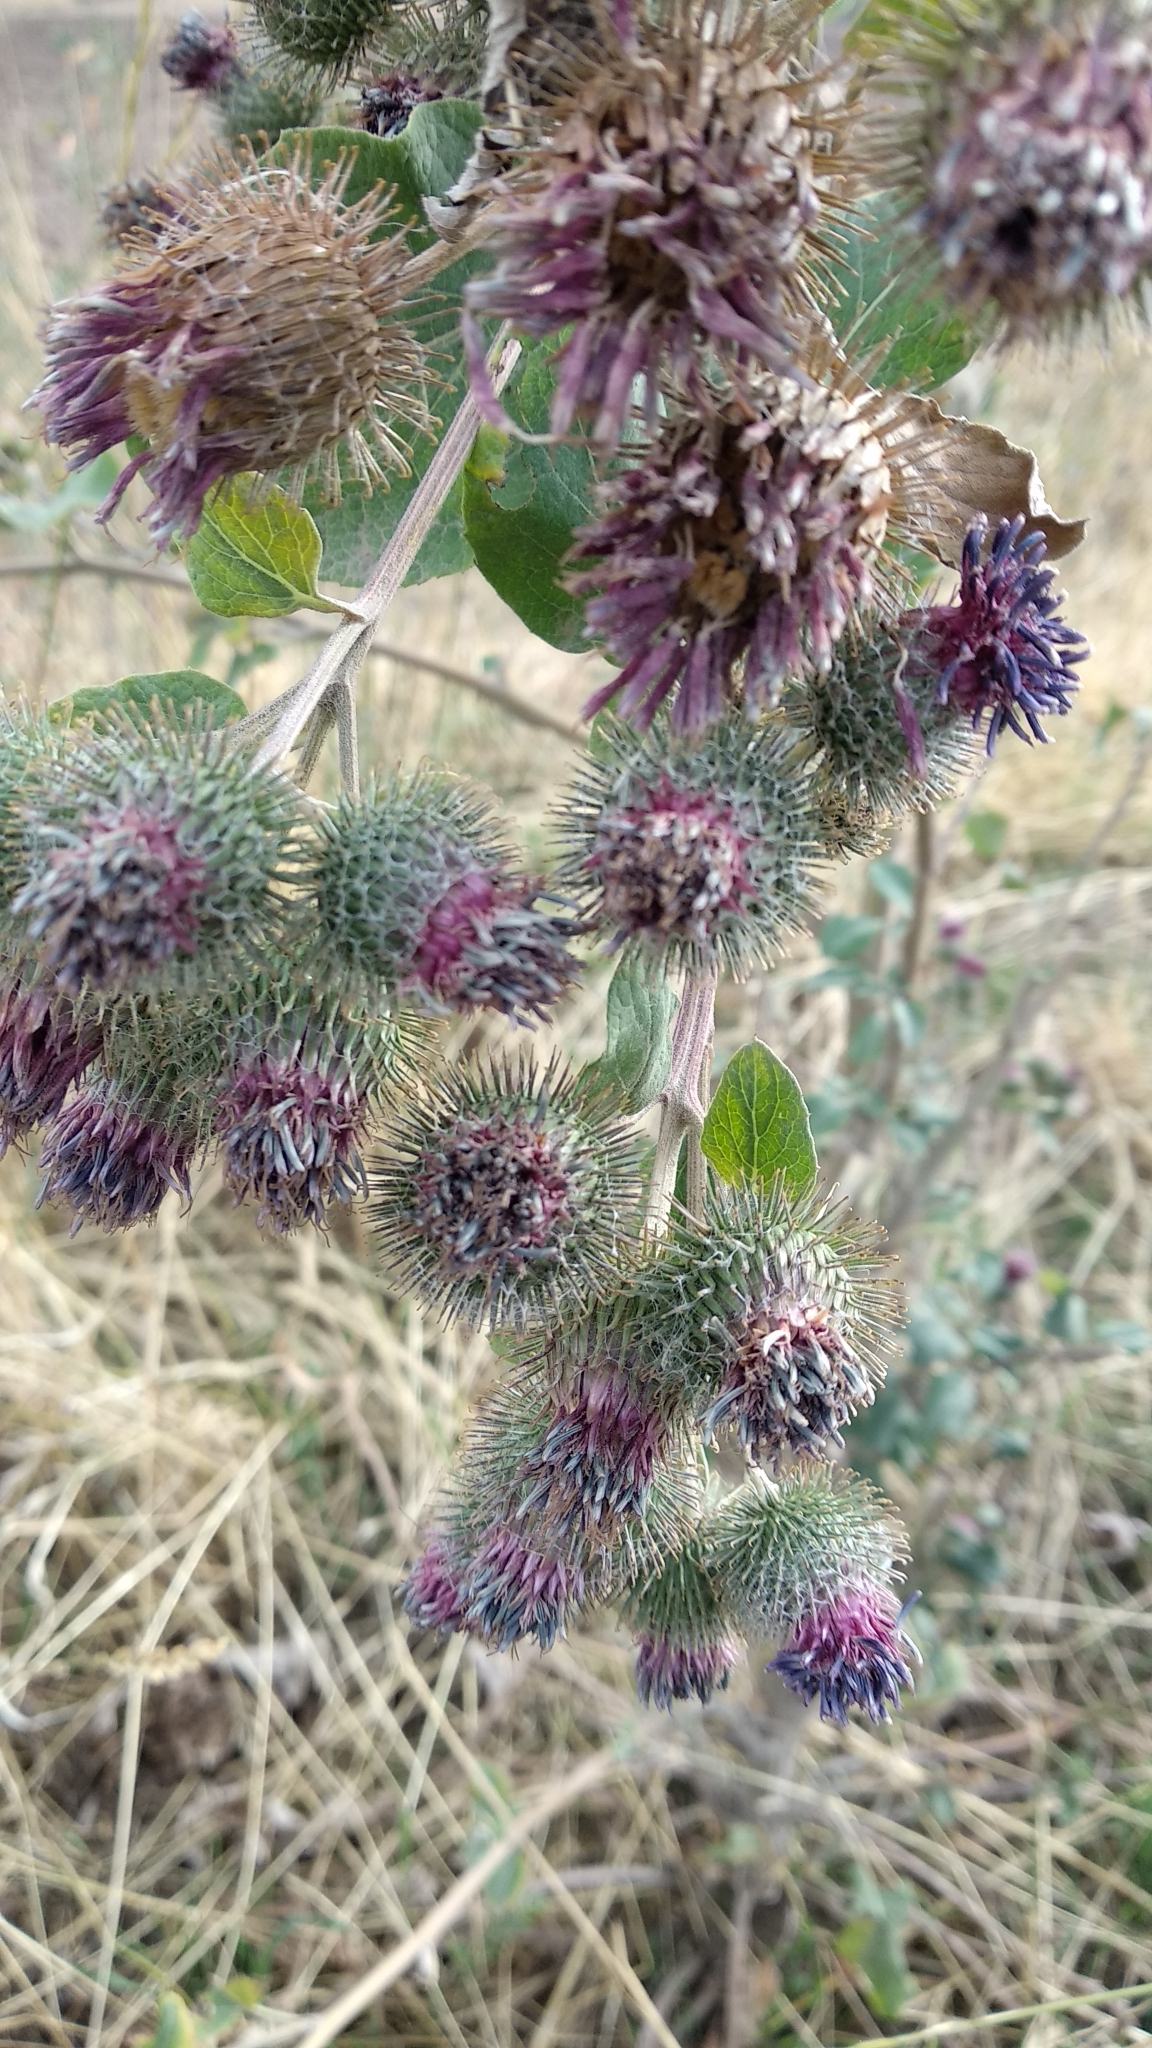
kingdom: Plantae
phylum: Tracheophyta
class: Magnoliopsida
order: Asterales
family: Asteraceae
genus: Arctium
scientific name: Arctium lappa
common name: Greater burdock
